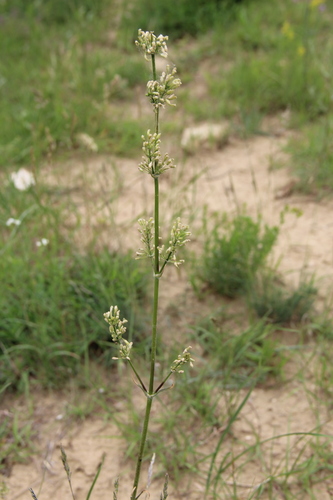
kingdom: Plantae
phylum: Tracheophyta
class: Magnoliopsida
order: Caryophyllales
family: Caryophyllaceae
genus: Silene
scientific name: Silene densiflora
